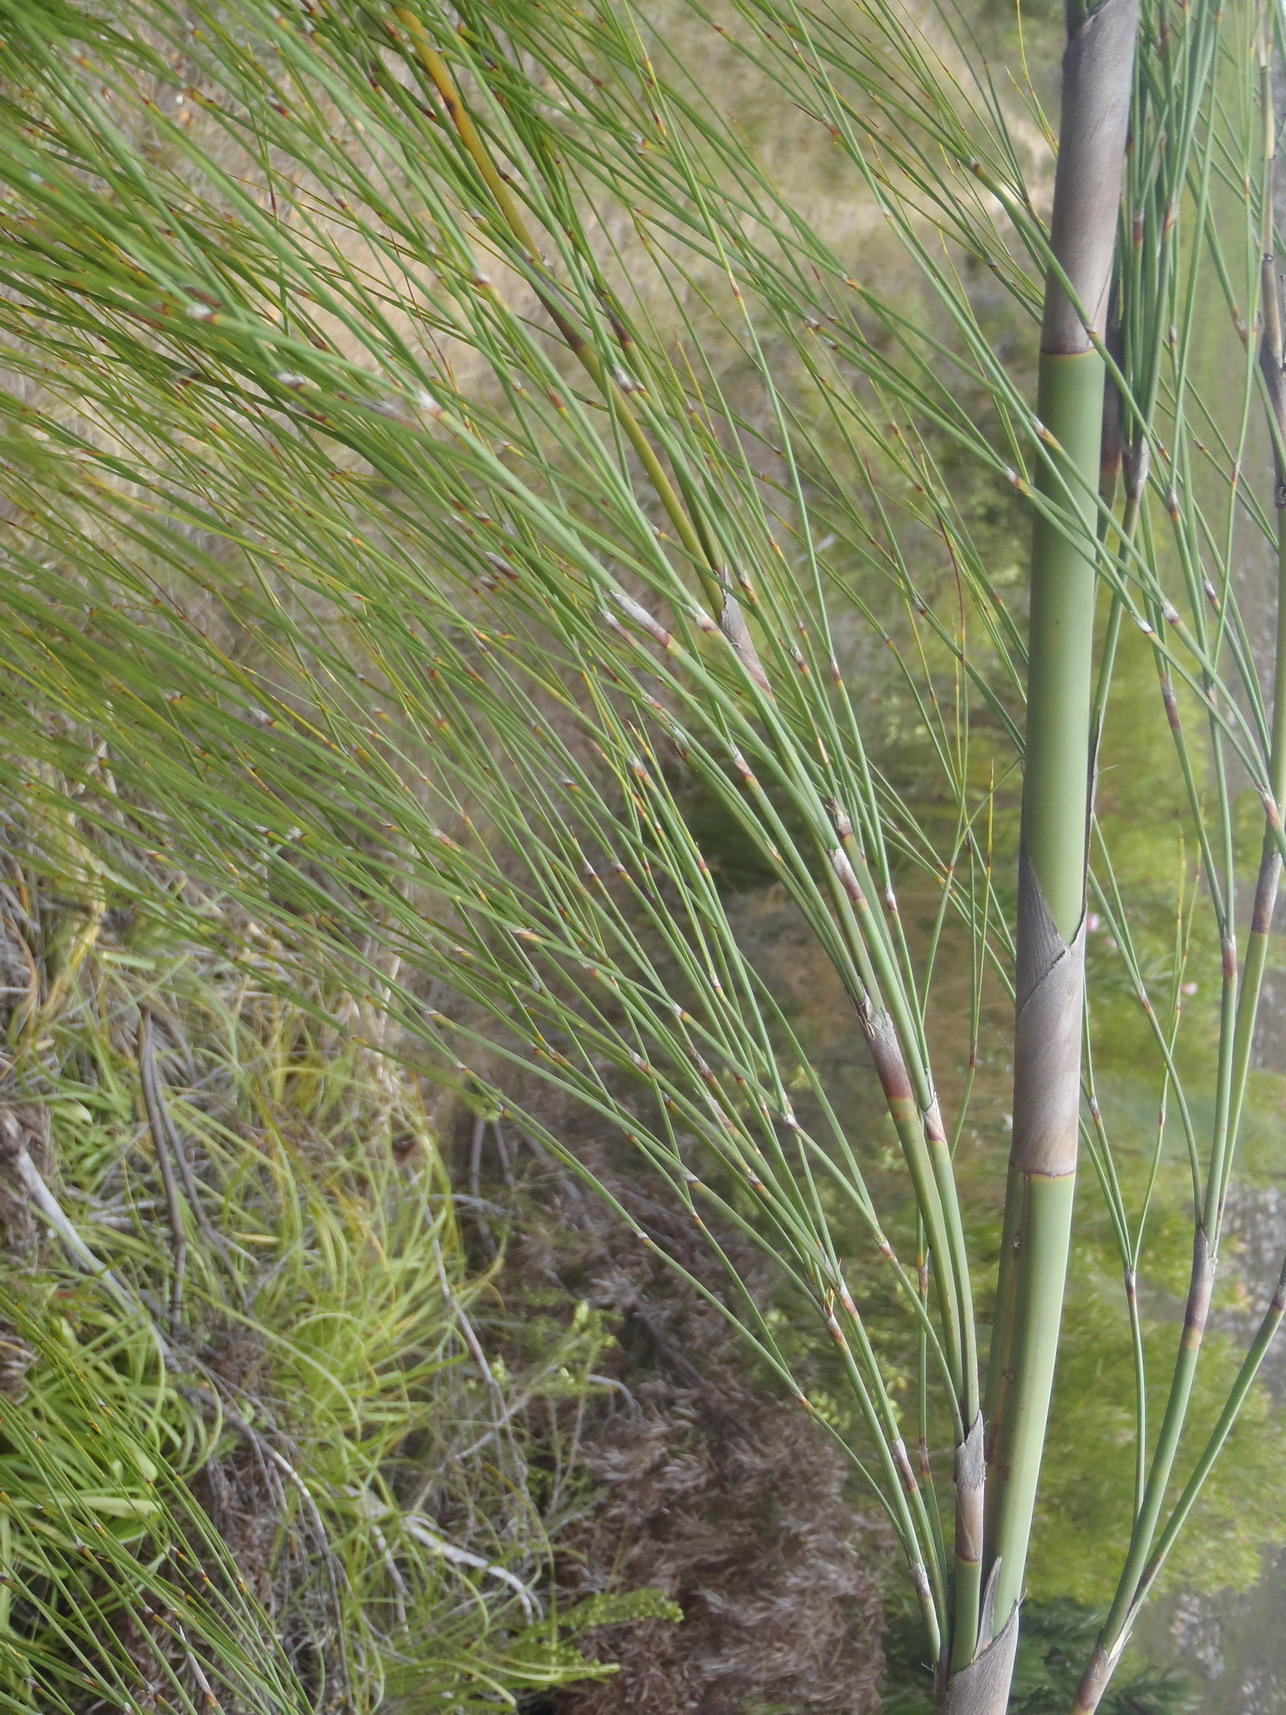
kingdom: Plantae
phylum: Tracheophyta
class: Liliopsida
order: Poales
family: Restionaceae
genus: Cannomois
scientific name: Cannomois grandis
